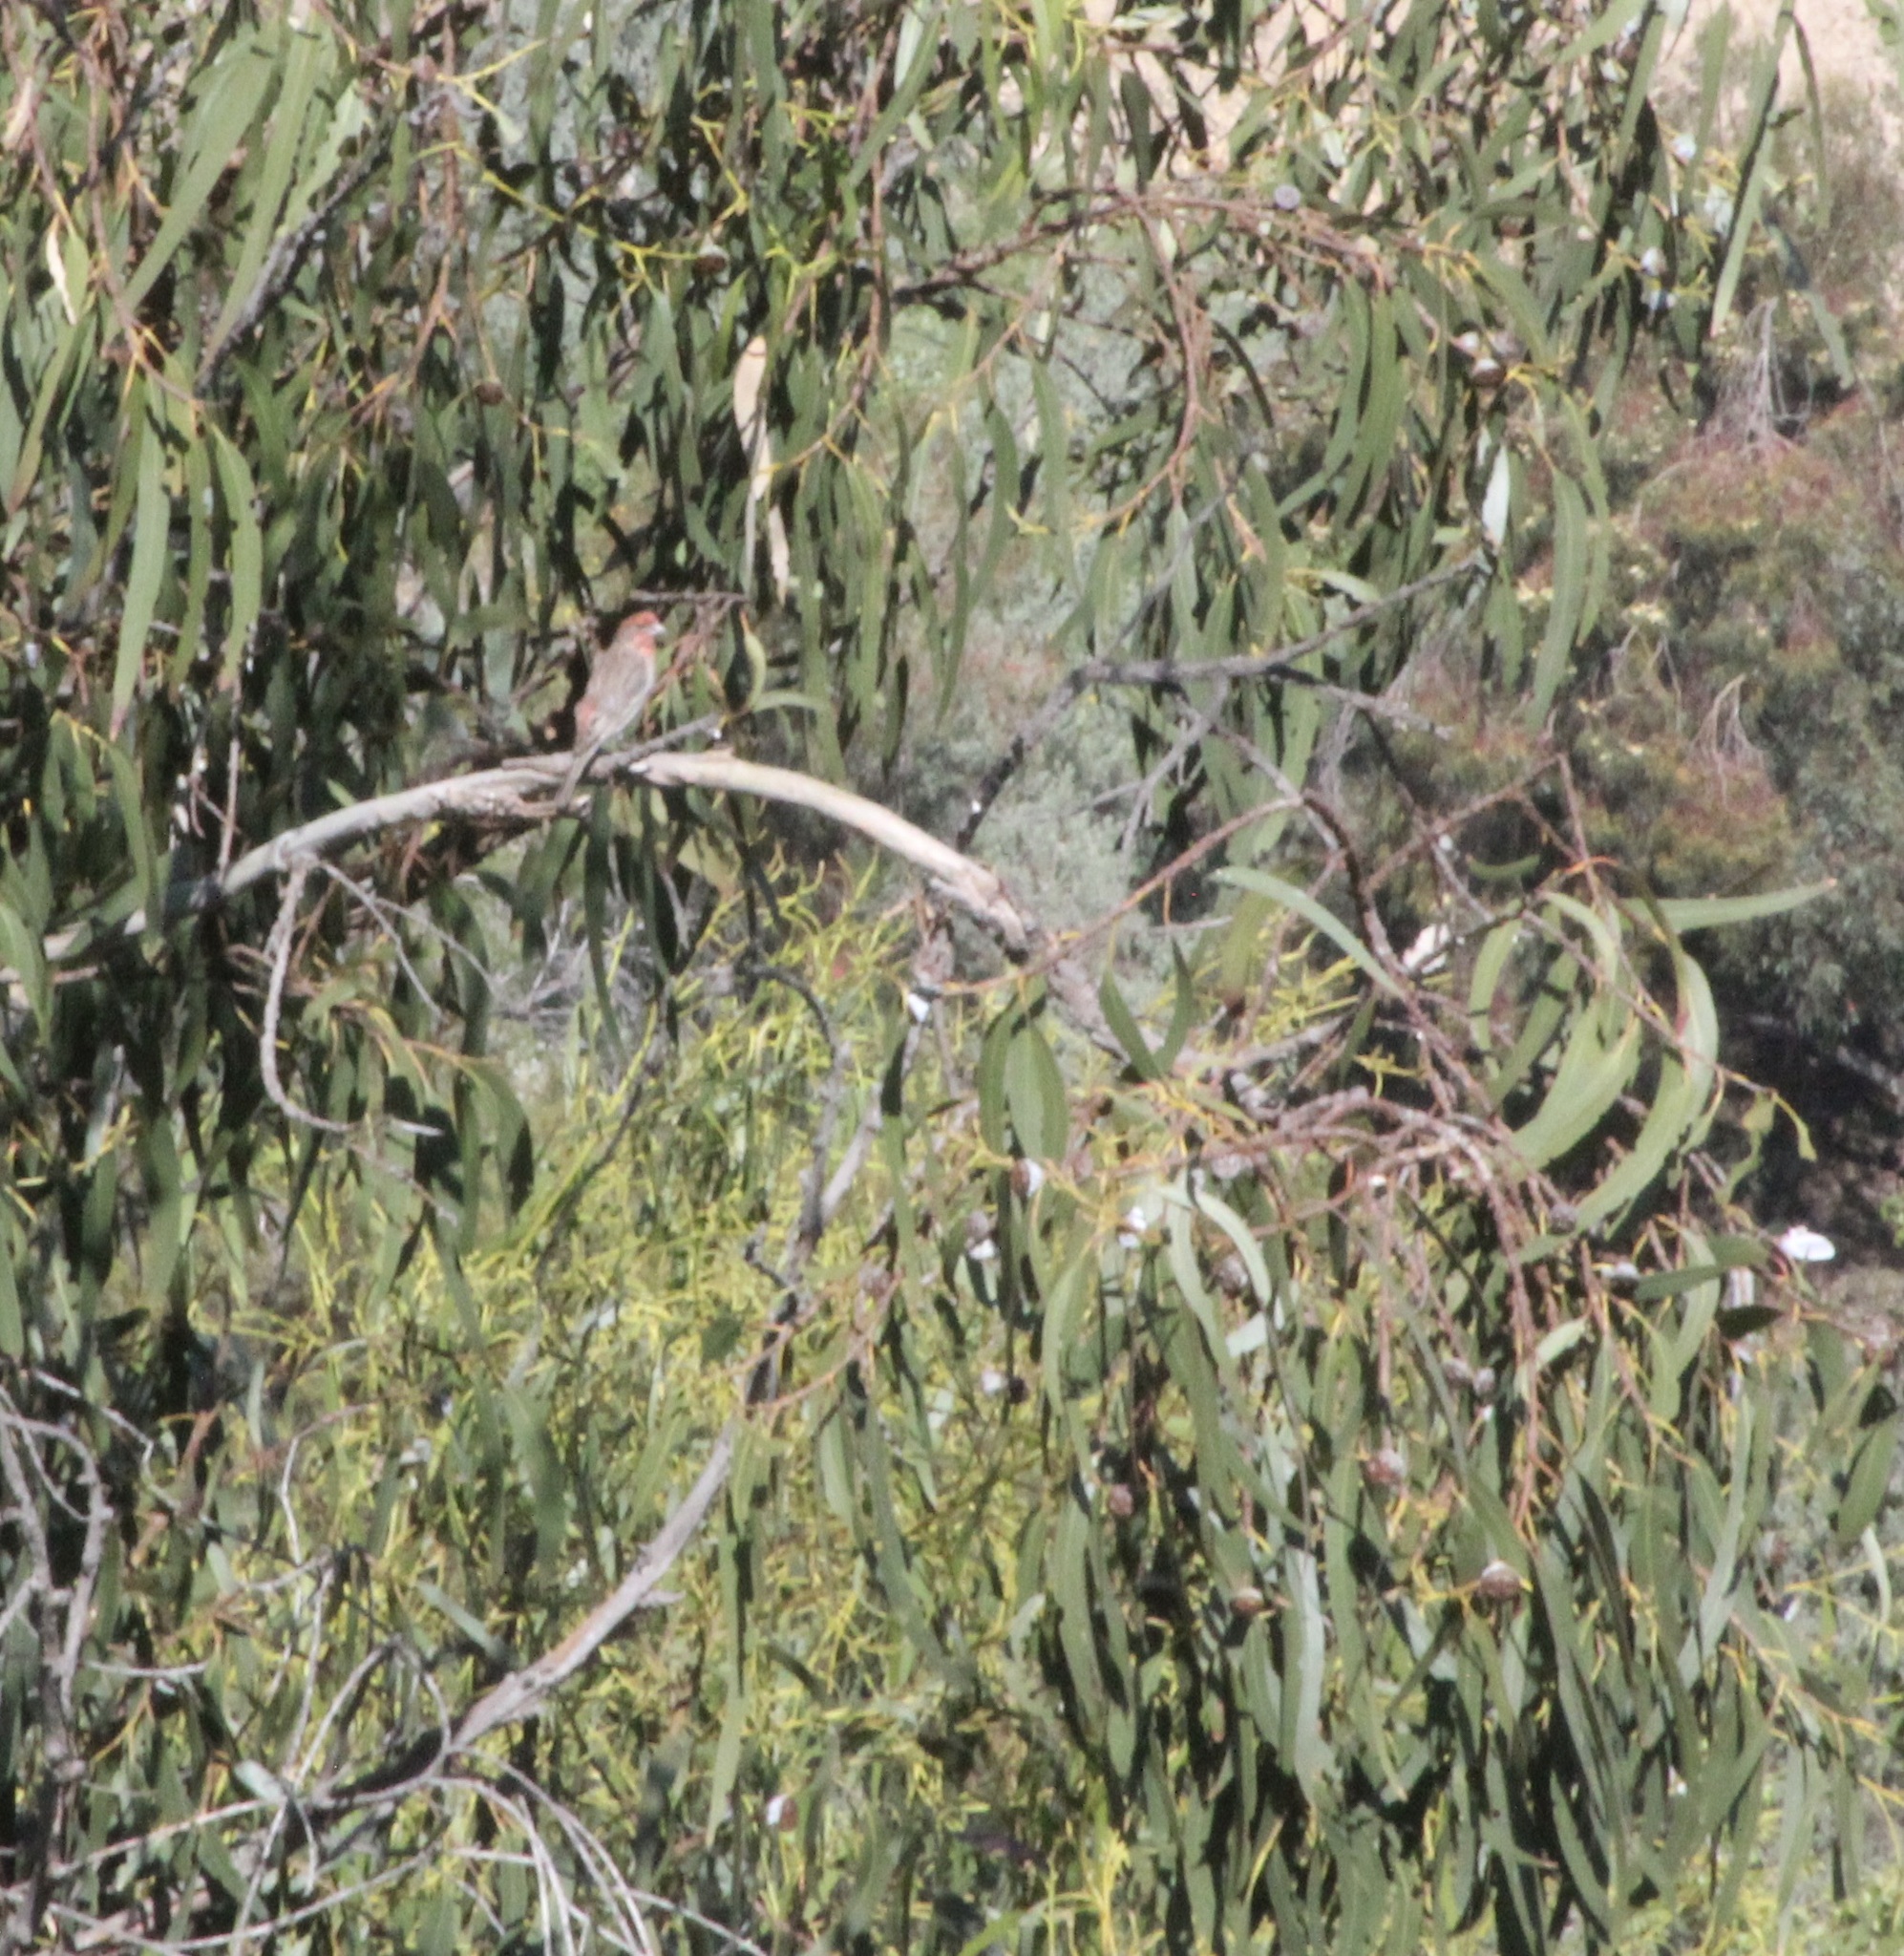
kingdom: Animalia
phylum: Chordata
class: Aves
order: Passeriformes
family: Fringillidae
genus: Haemorhous
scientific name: Haemorhous mexicanus
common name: House finch
